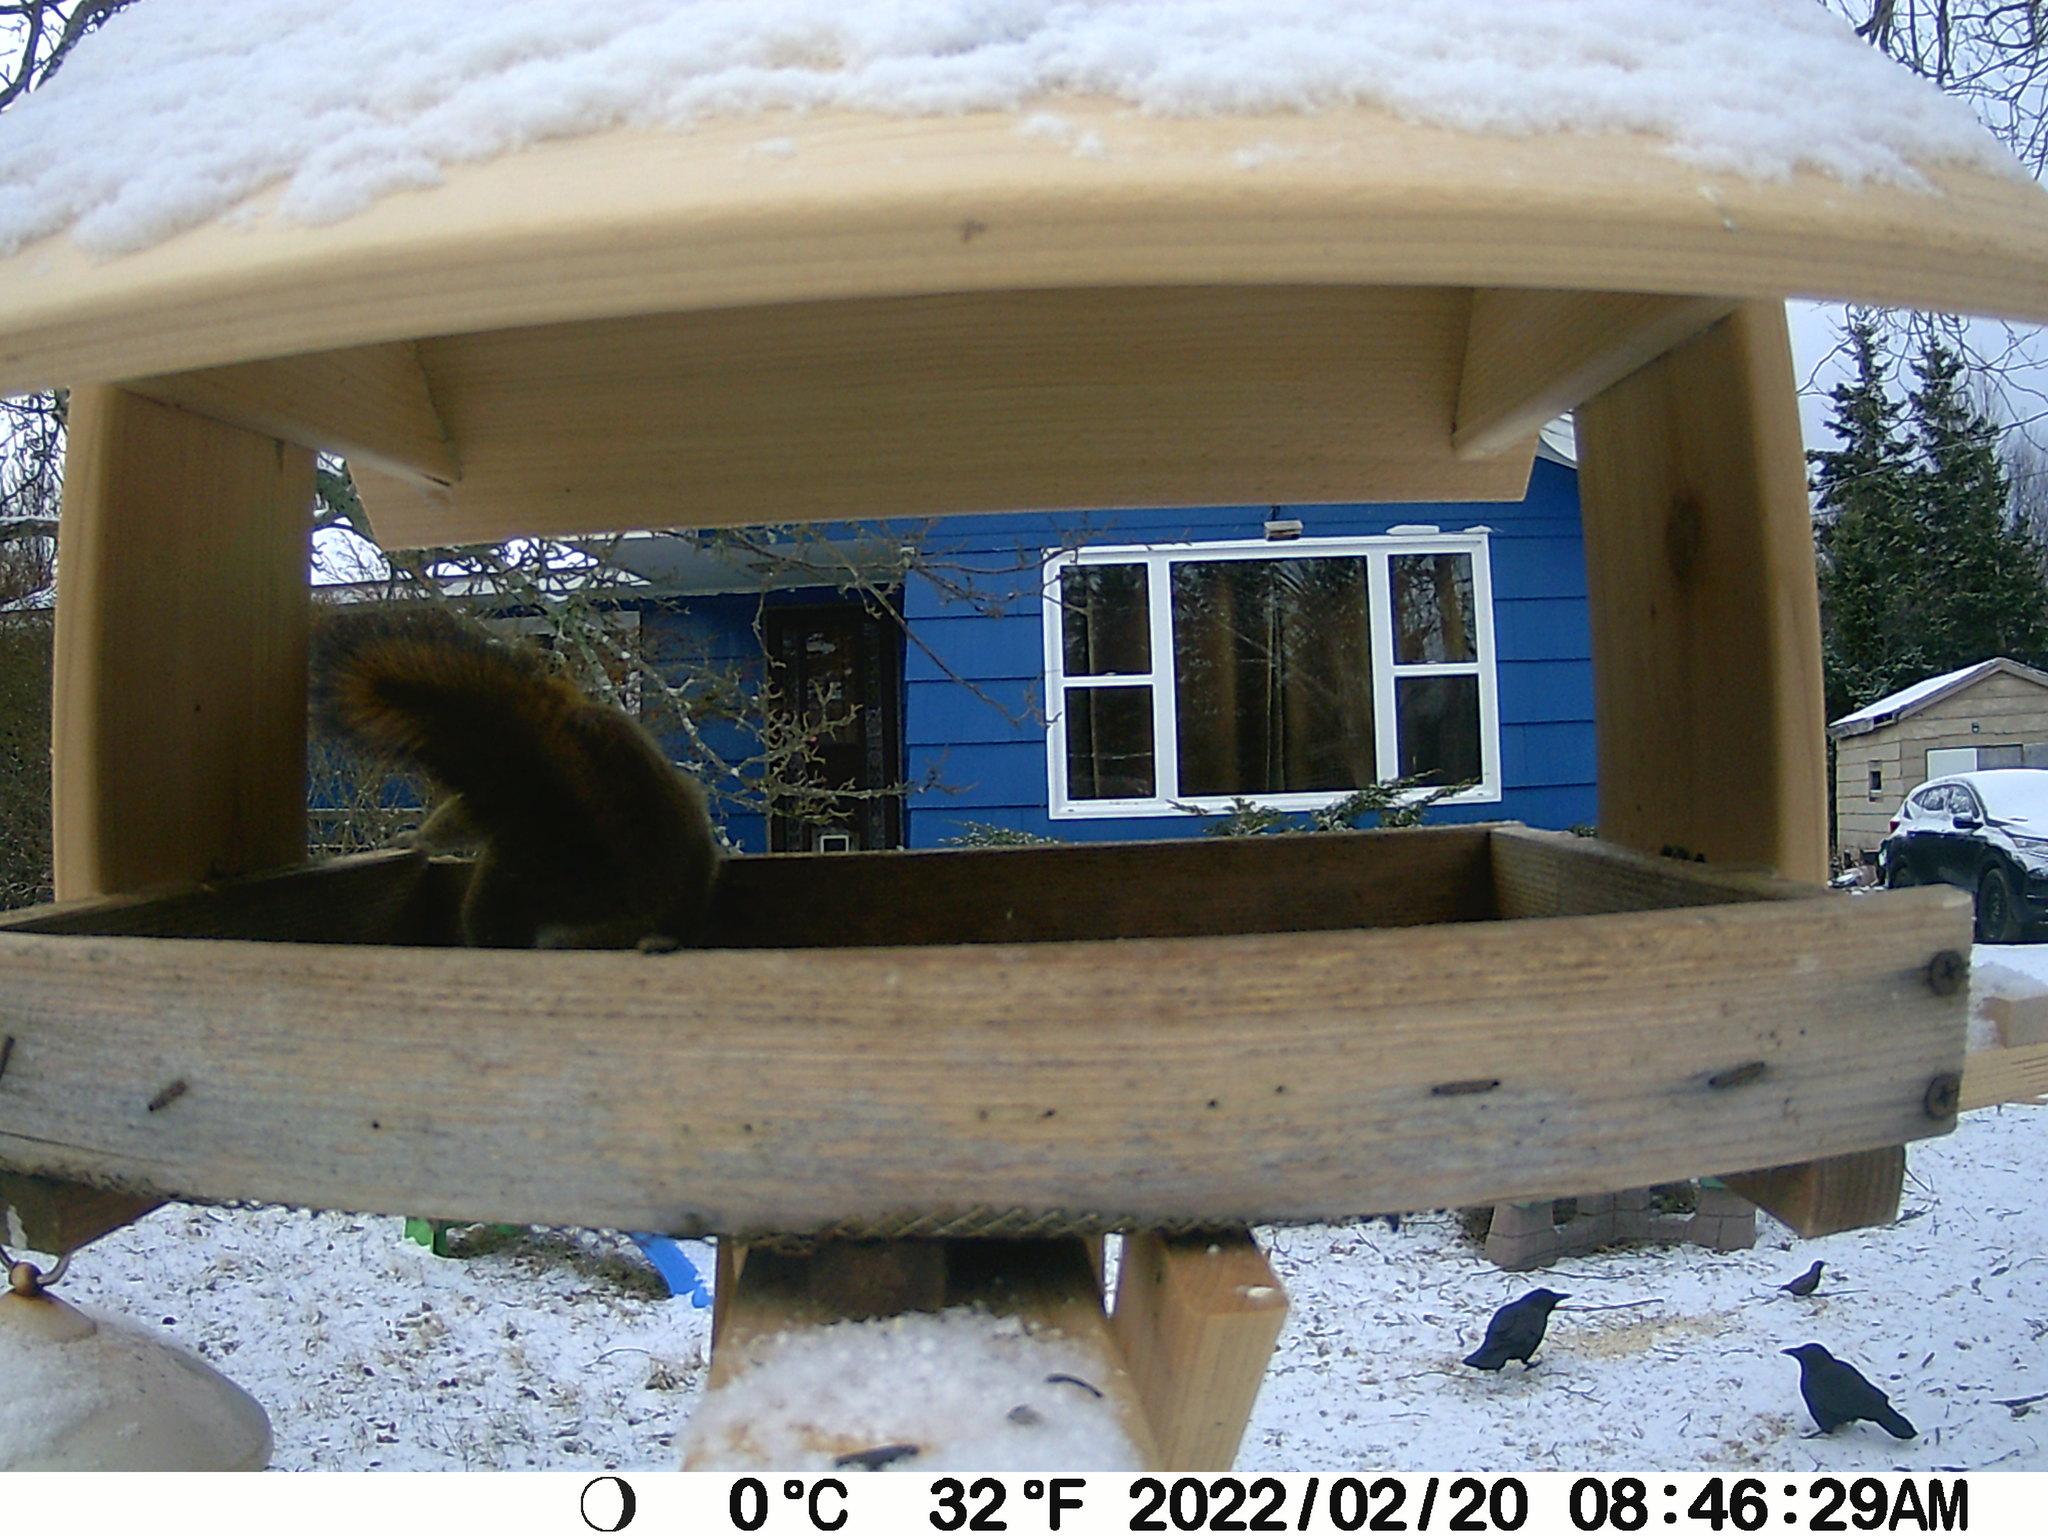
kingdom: Animalia
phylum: Chordata
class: Aves
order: Passeriformes
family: Sturnidae
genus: Sturnus
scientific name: Sturnus vulgaris
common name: Common starling
